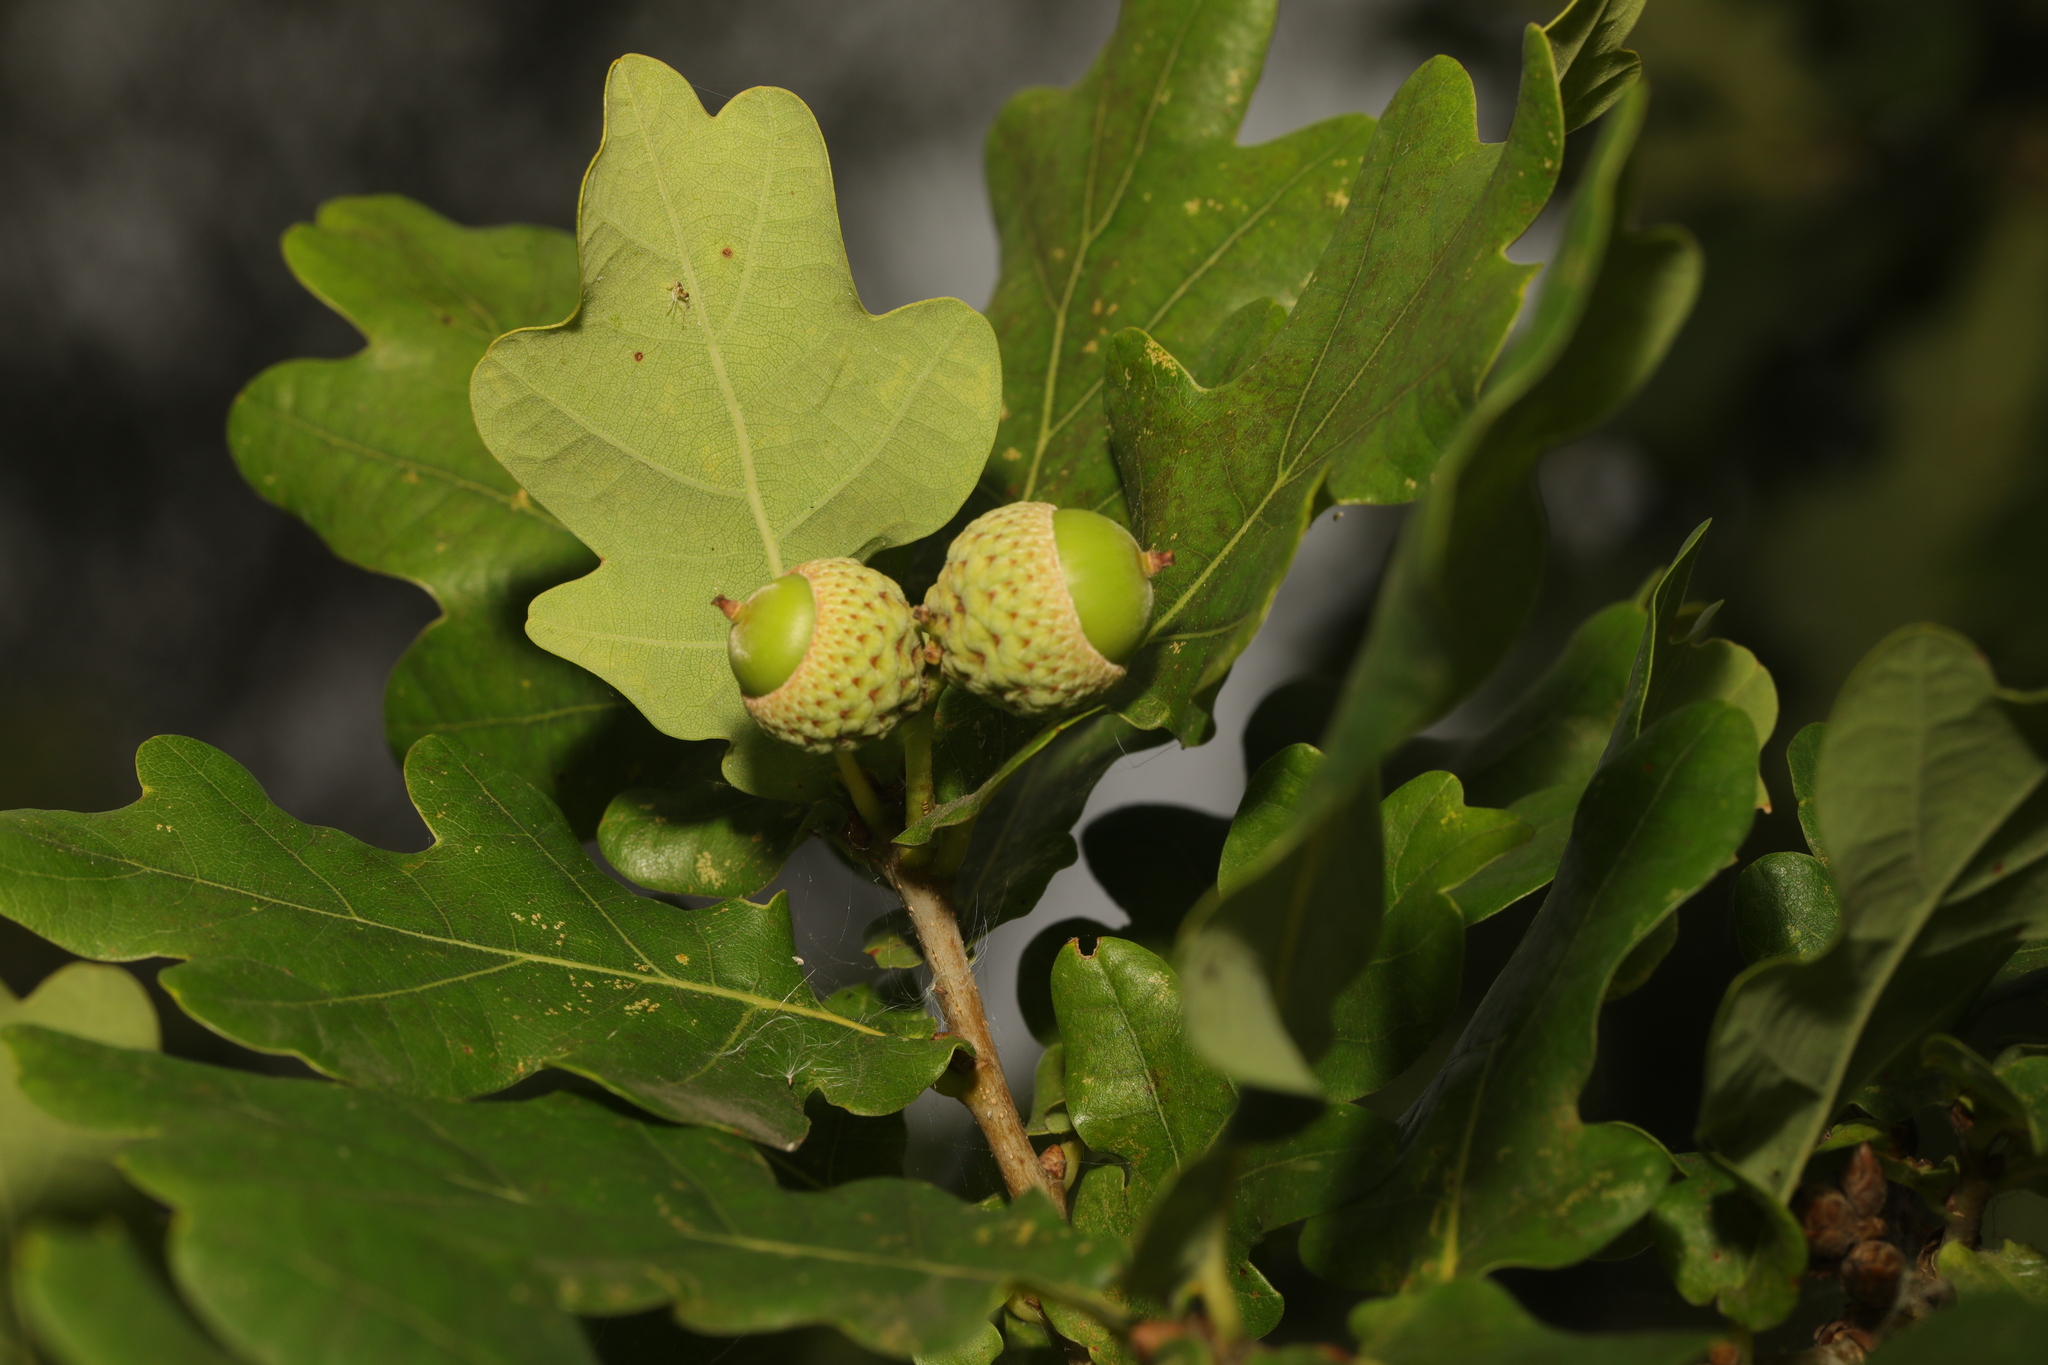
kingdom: Plantae
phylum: Tracheophyta
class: Magnoliopsida
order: Fagales
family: Fagaceae
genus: Quercus
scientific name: Quercus petraea
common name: Sessile oak
